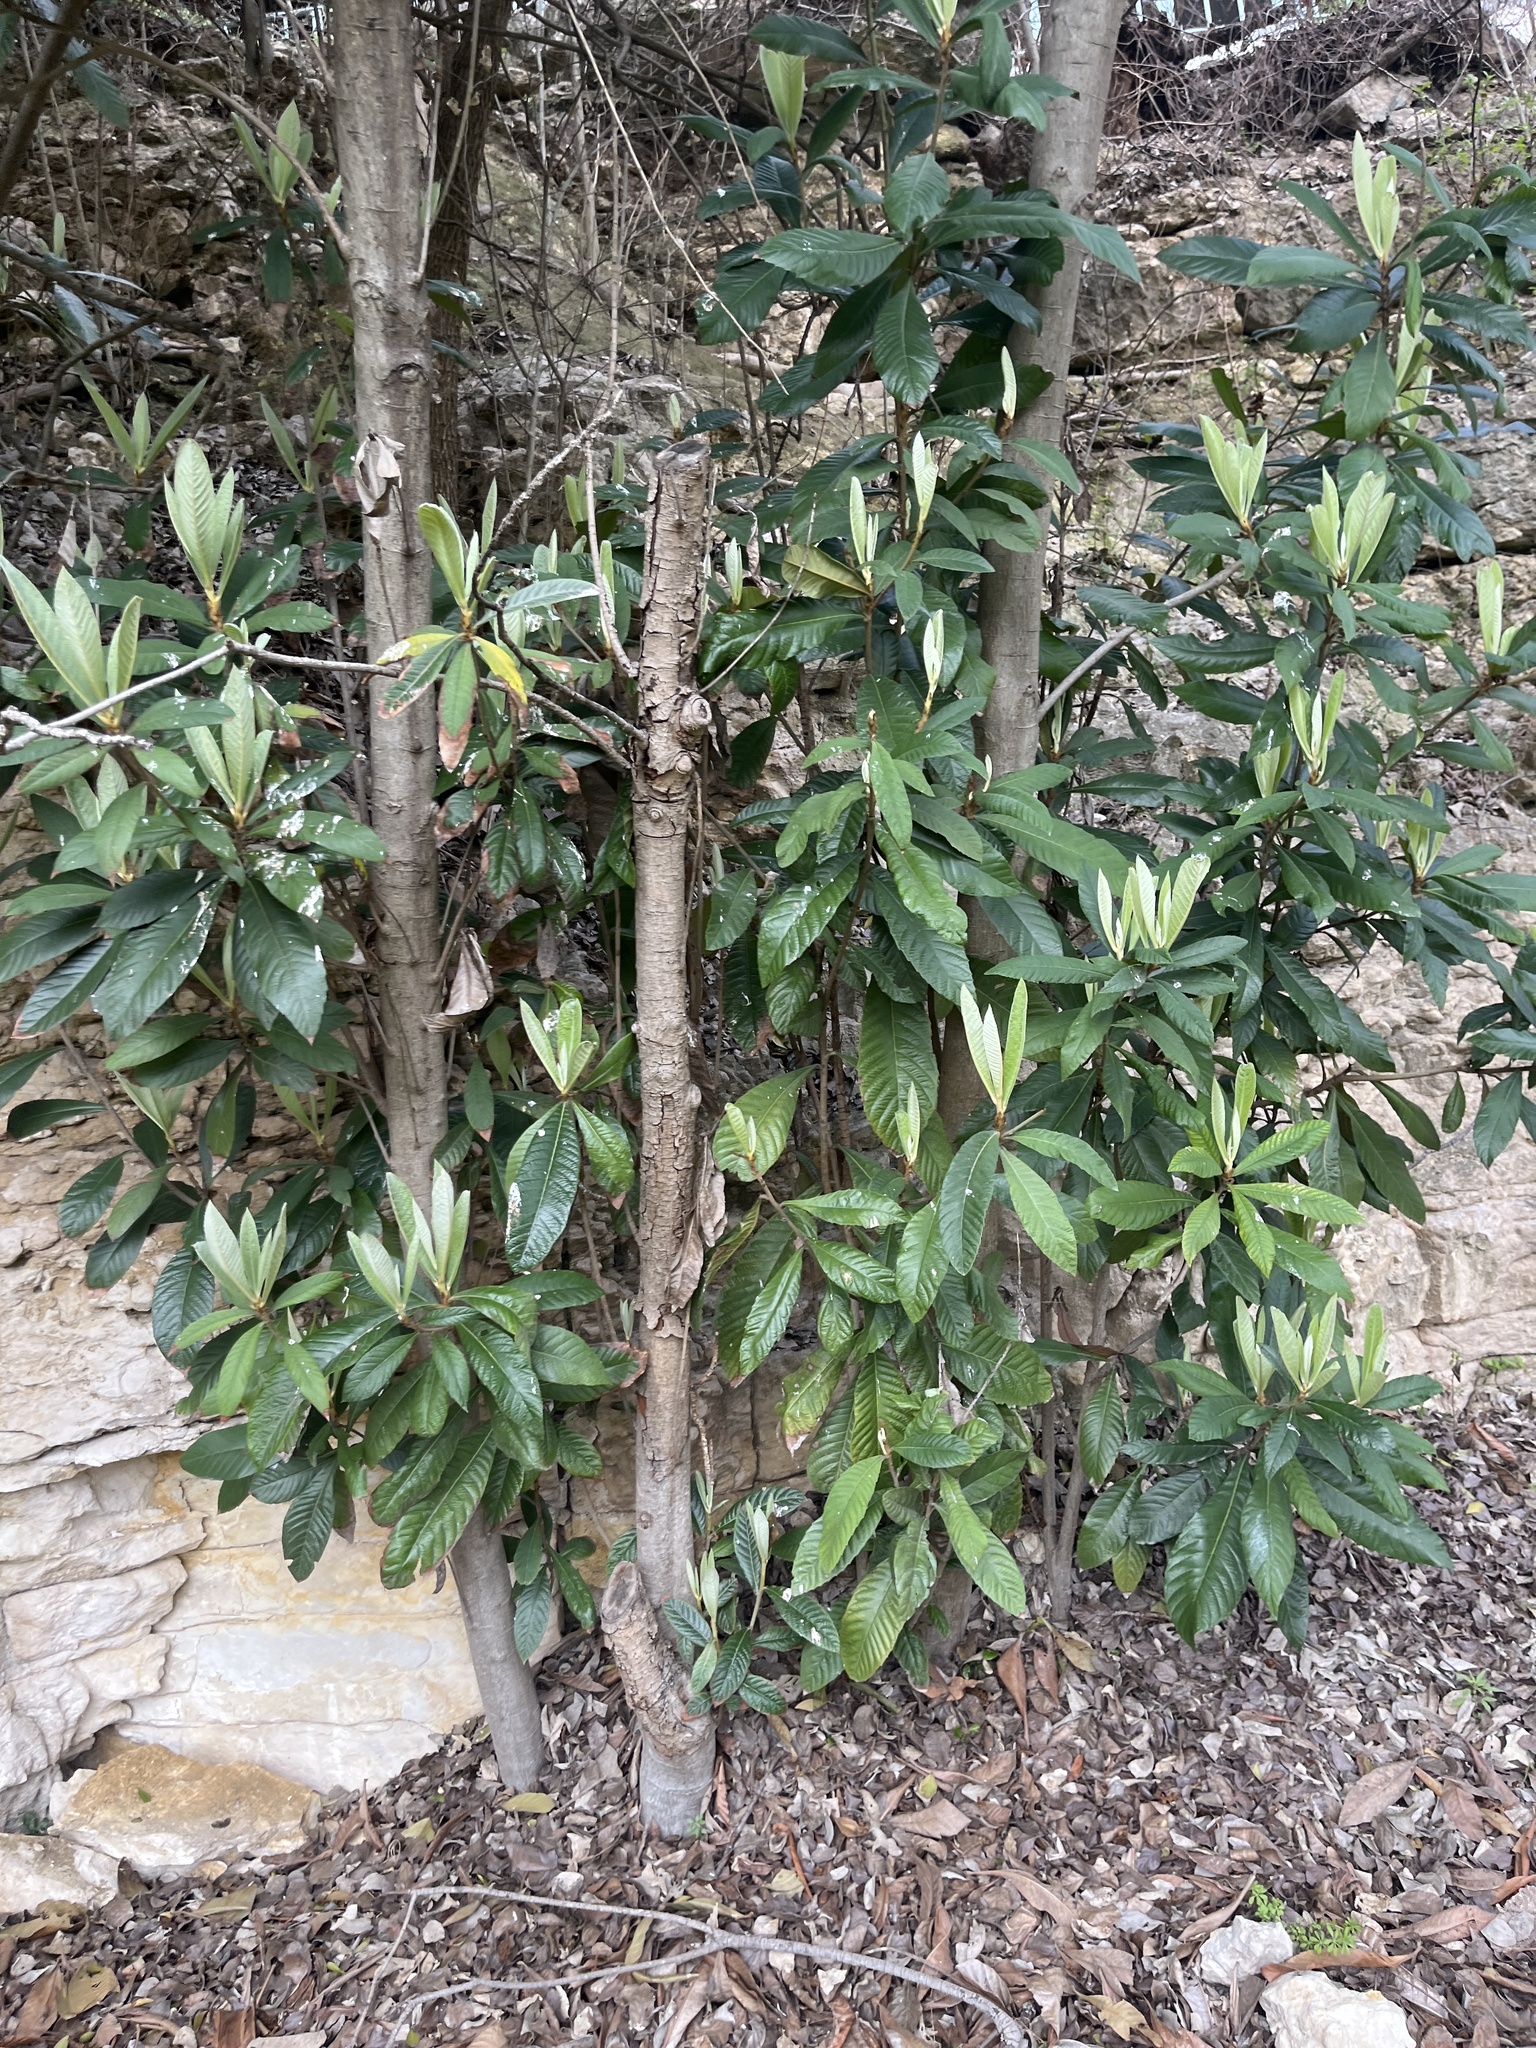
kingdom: Plantae
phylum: Tracheophyta
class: Magnoliopsida
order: Rosales
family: Rosaceae
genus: Rhaphiolepis
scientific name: Rhaphiolepis bibas
